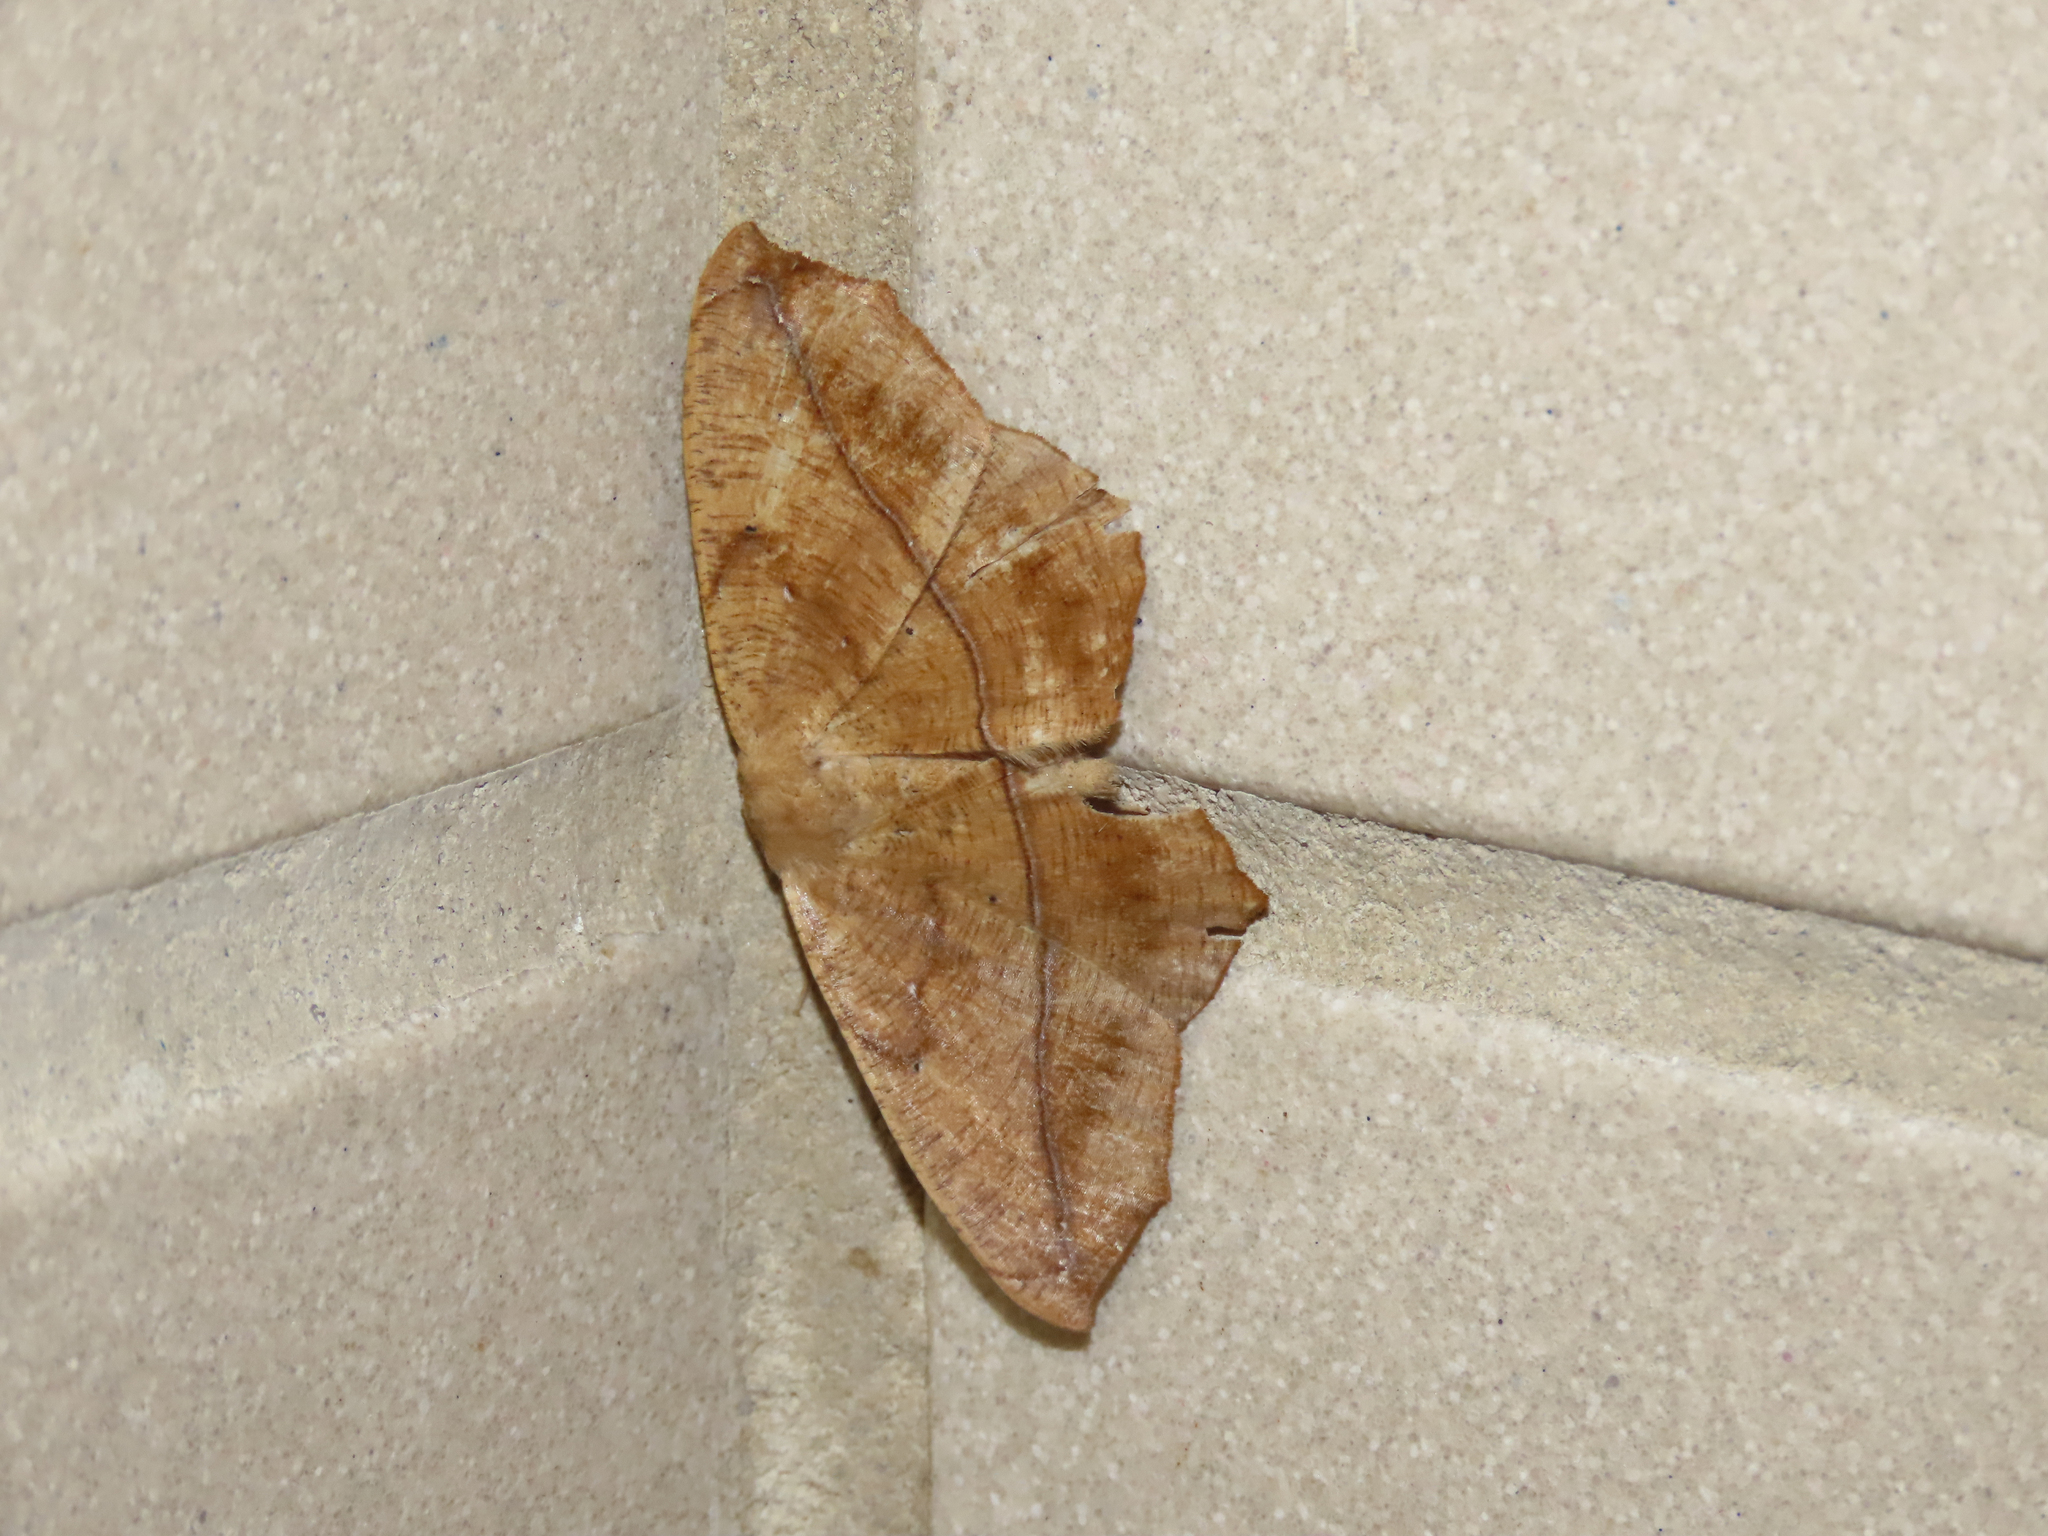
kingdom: Animalia
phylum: Arthropoda
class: Insecta
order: Lepidoptera
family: Geometridae
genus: Prochoerodes
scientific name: Prochoerodes lineola
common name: Large maple spanworm
